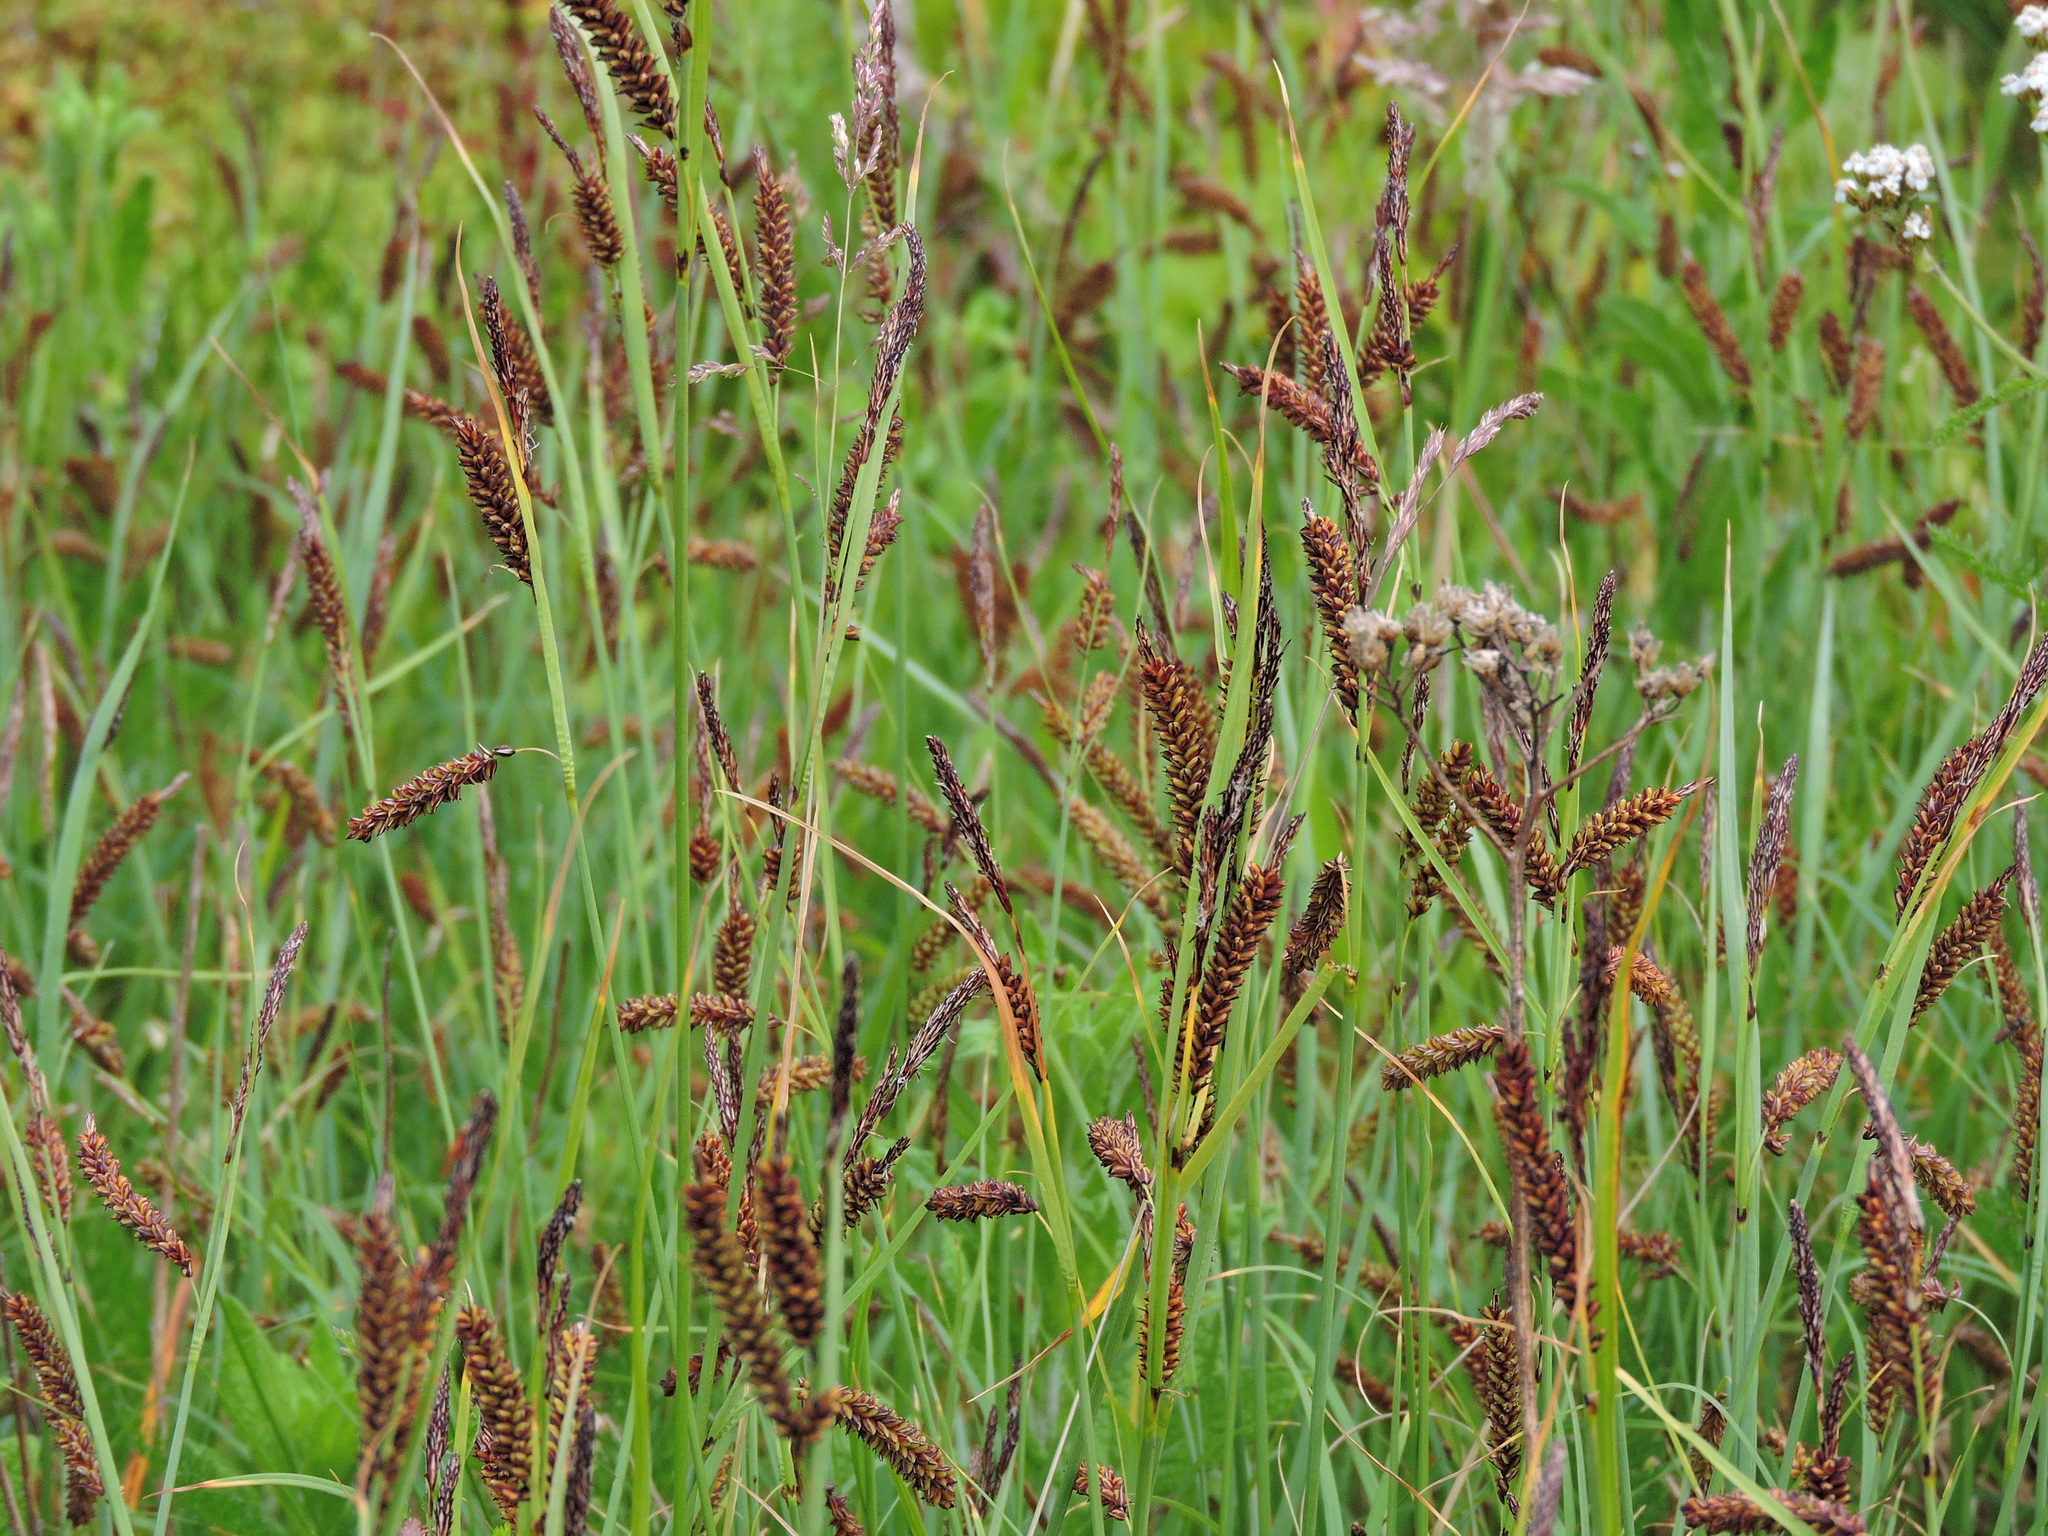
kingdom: Plantae
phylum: Tracheophyta
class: Liliopsida
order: Poales
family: Cyperaceae
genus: Carex
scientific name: Carex flacca
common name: Glaucous sedge
